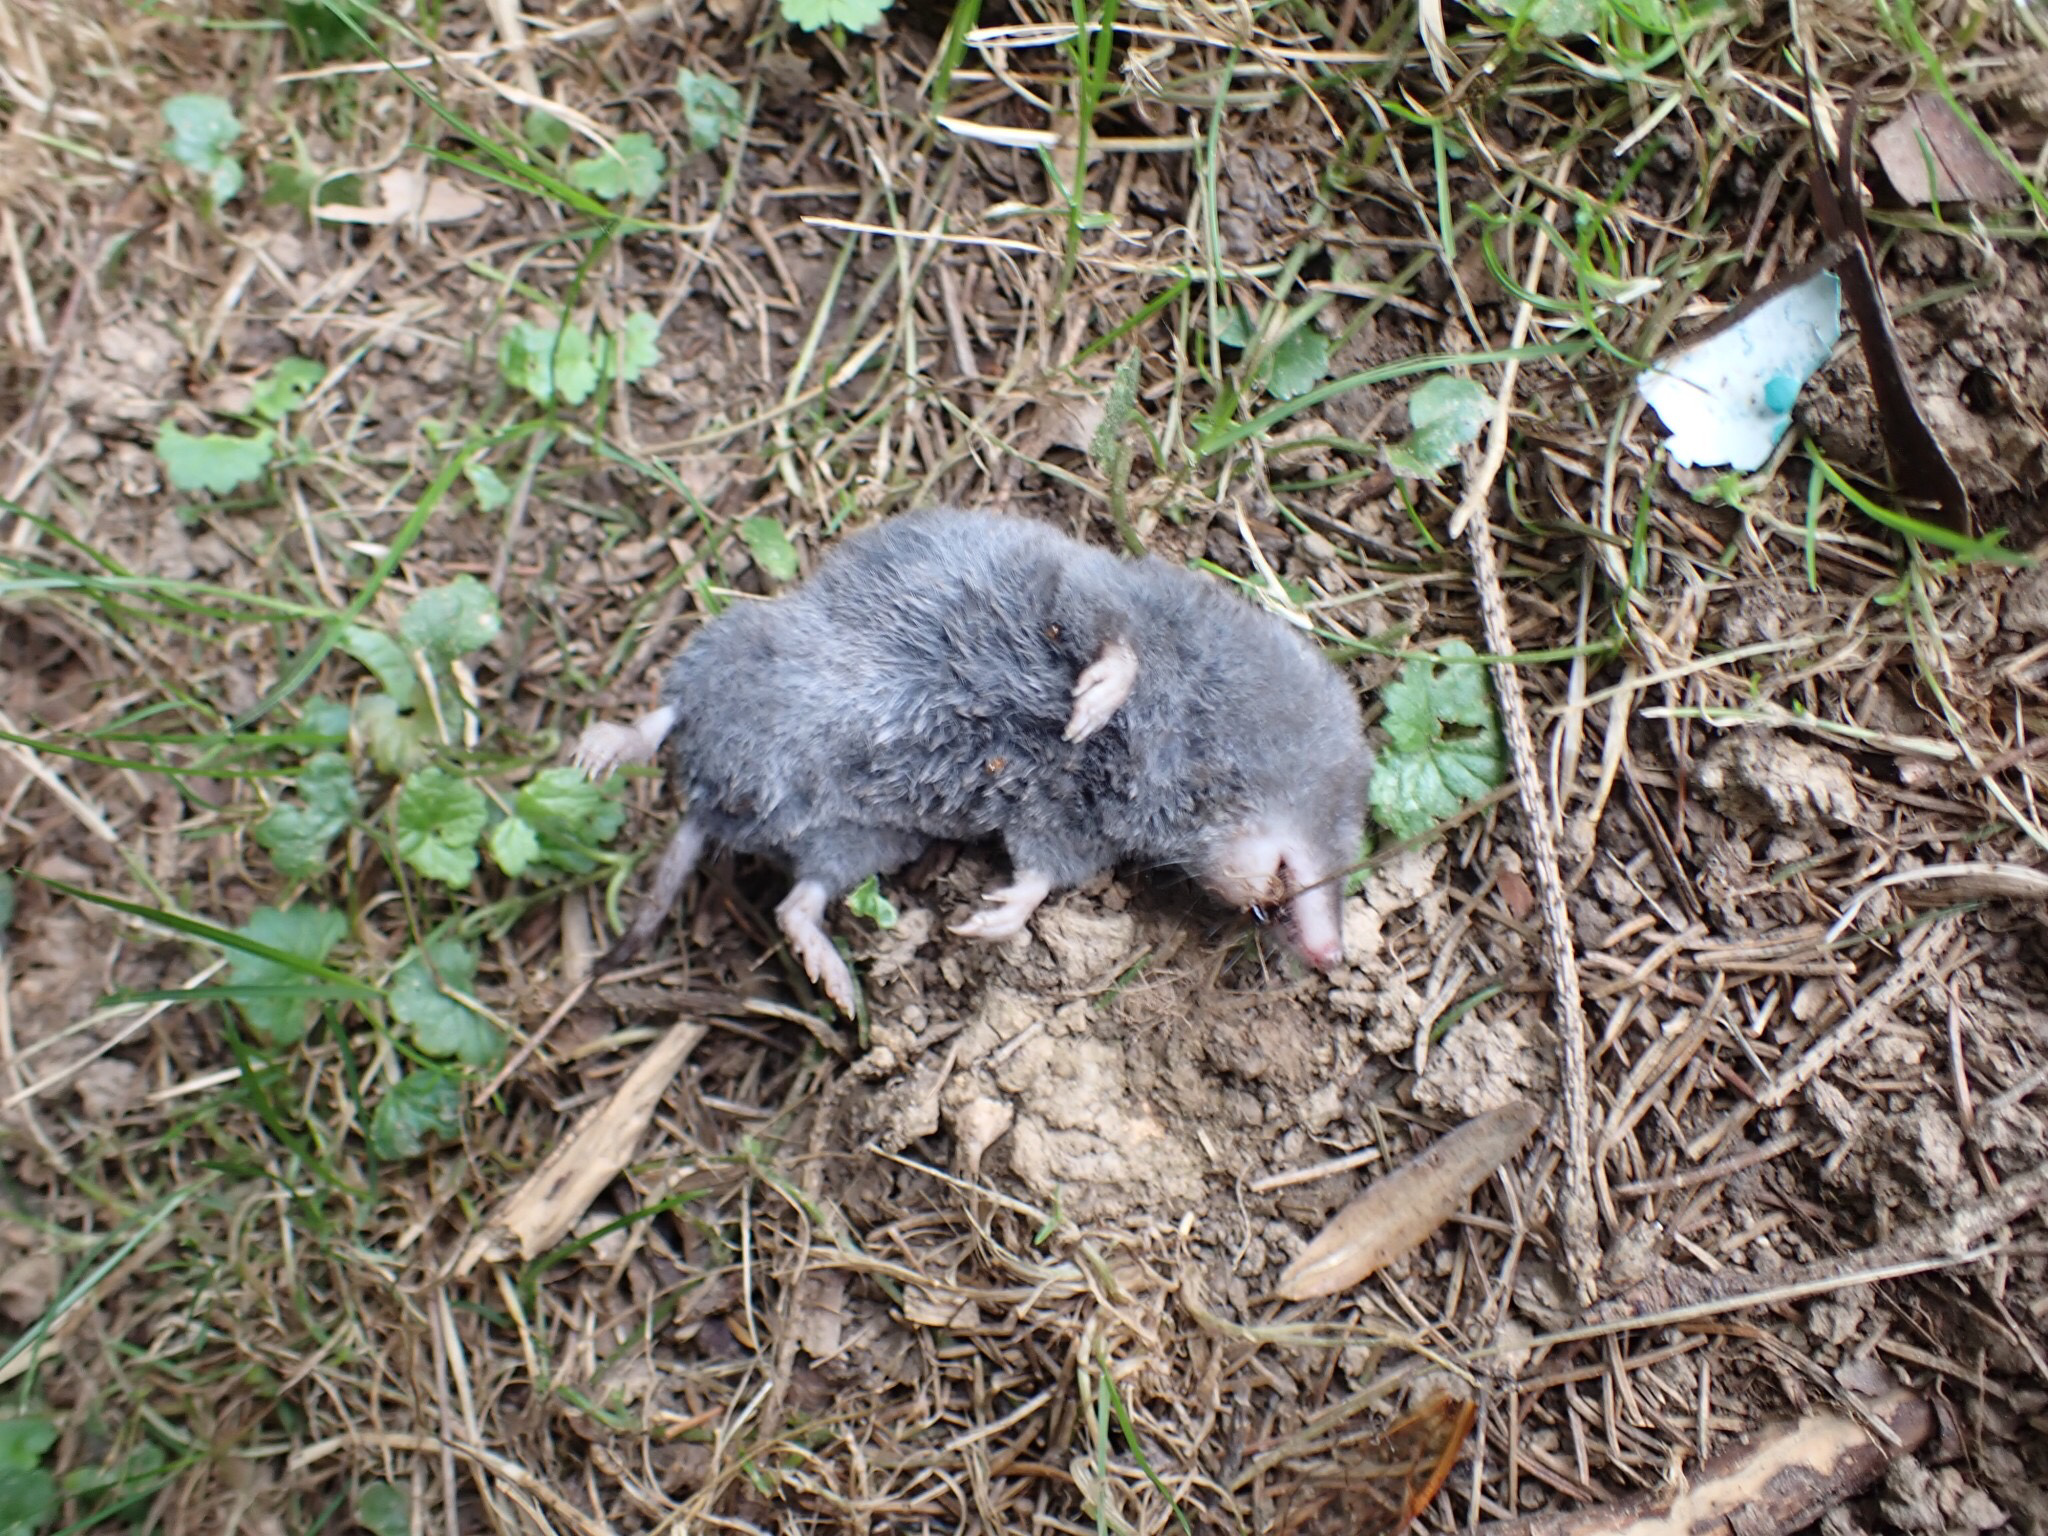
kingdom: Animalia
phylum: Chordata
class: Mammalia
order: Soricomorpha
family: Soricidae
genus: Blarina
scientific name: Blarina brevicauda
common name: Northern short-tailed shrew
